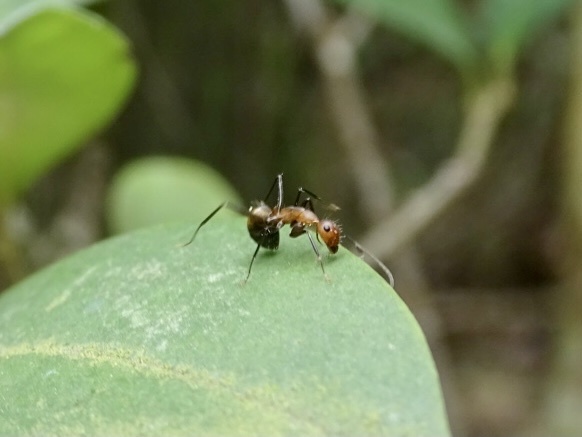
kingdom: Animalia
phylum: Arthropoda
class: Insecta
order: Hymenoptera
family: Formicidae
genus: Camponotus
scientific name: Camponotus nicobarensis
